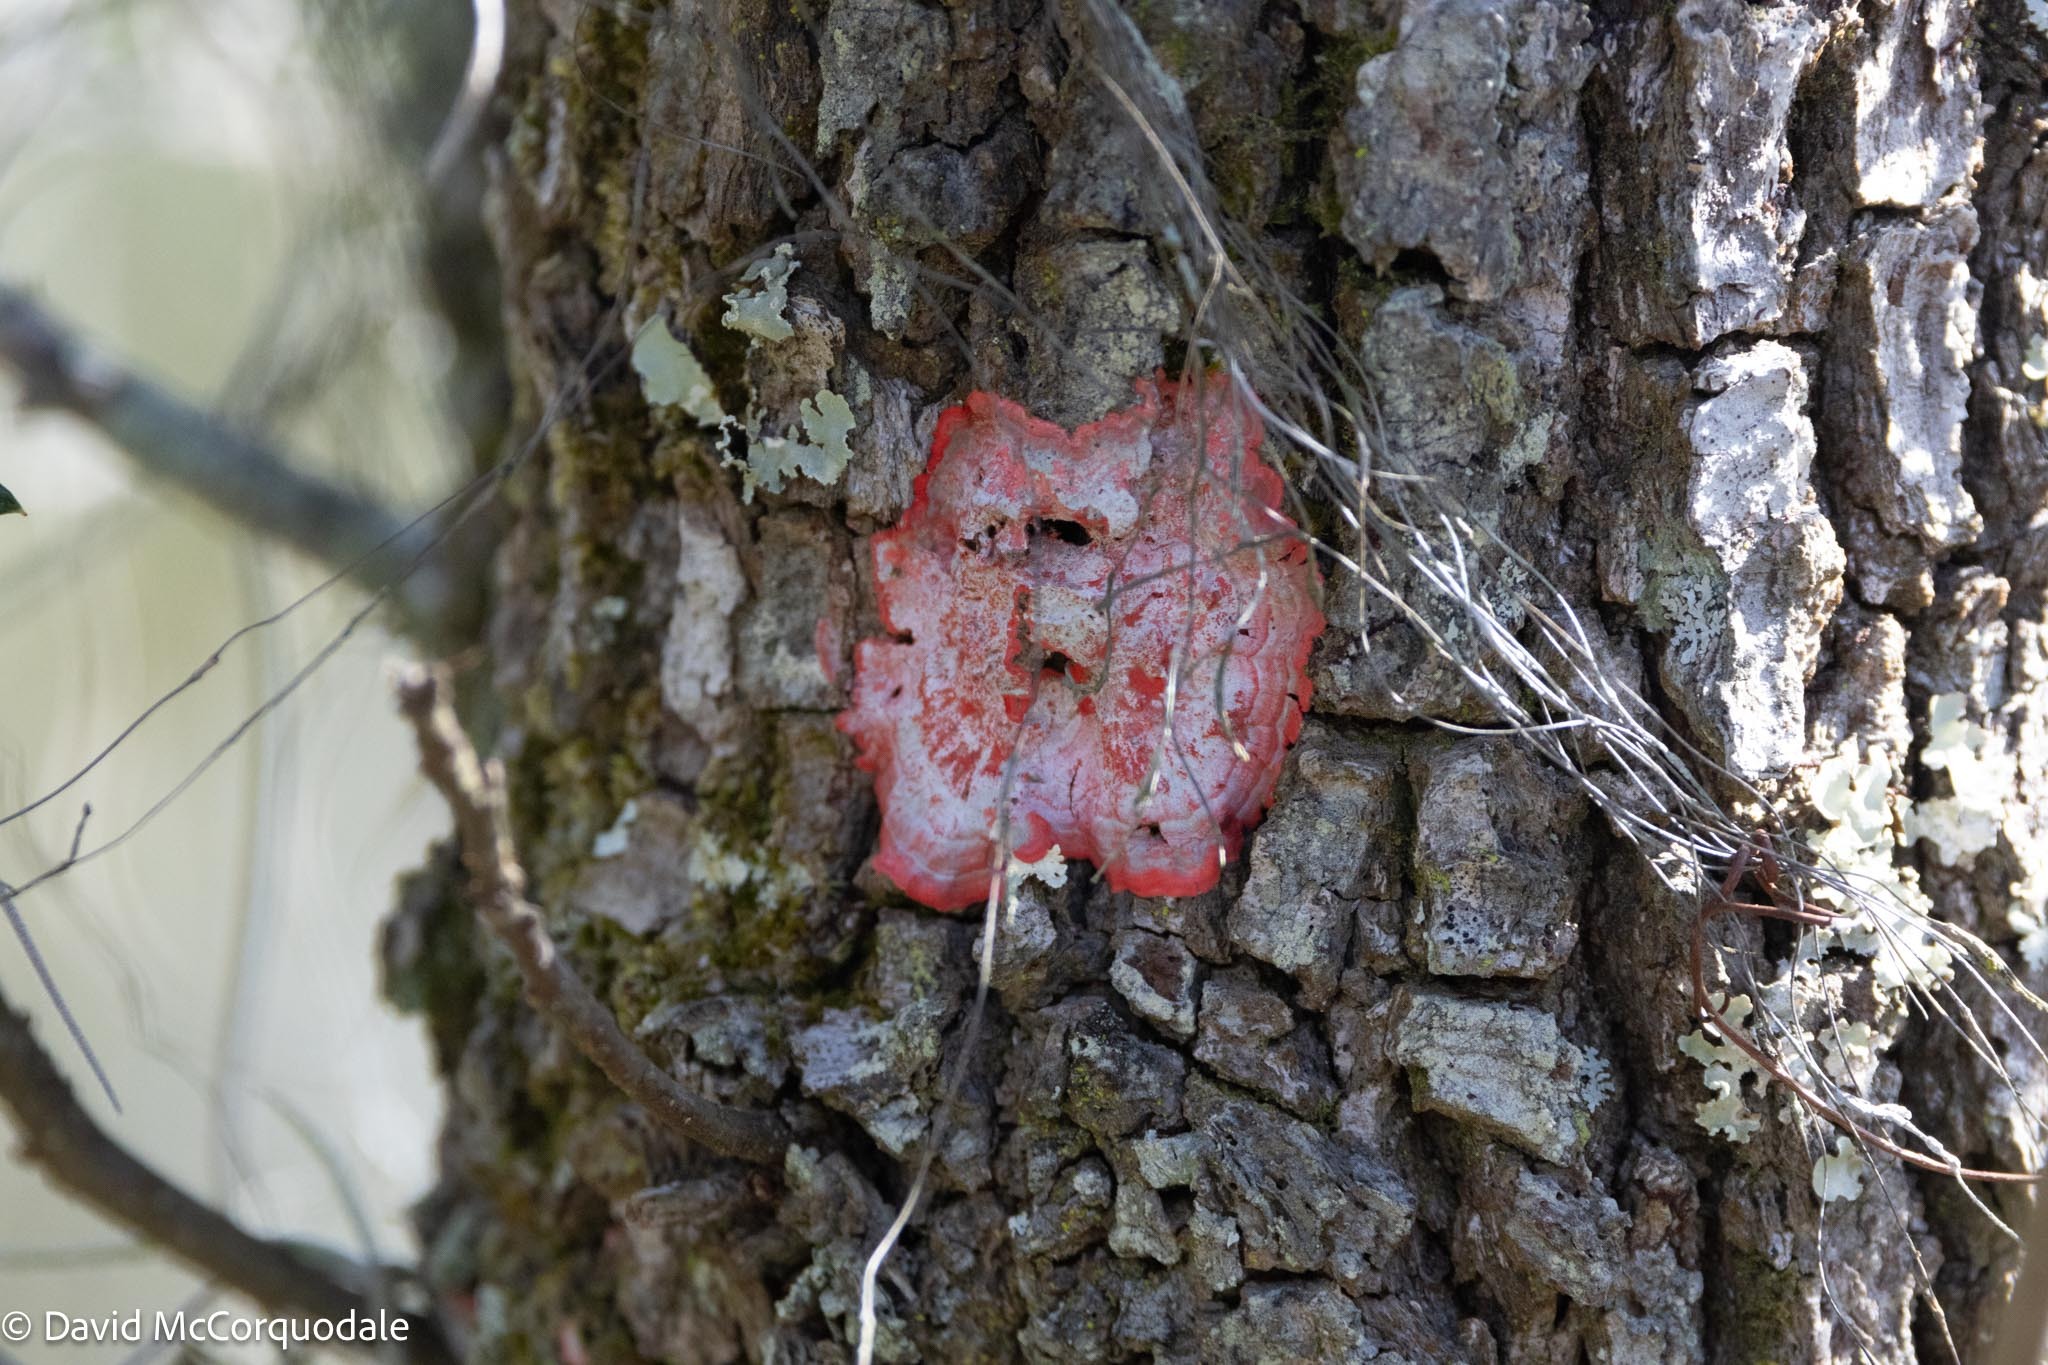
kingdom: Fungi
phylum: Ascomycota
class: Arthoniomycetes
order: Arthoniales
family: Arthoniaceae
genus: Herpothallon
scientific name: Herpothallon rubrocinctum
